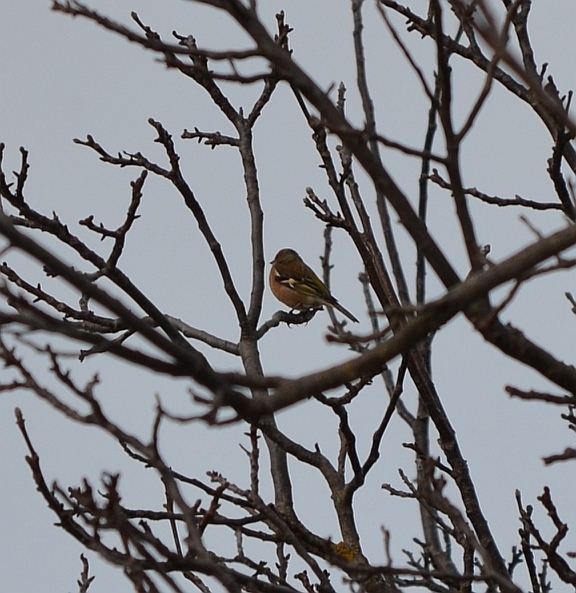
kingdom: Animalia
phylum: Chordata
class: Aves
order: Passeriformes
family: Fringillidae
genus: Fringilla
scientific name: Fringilla coelebs
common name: Common chaffinch
